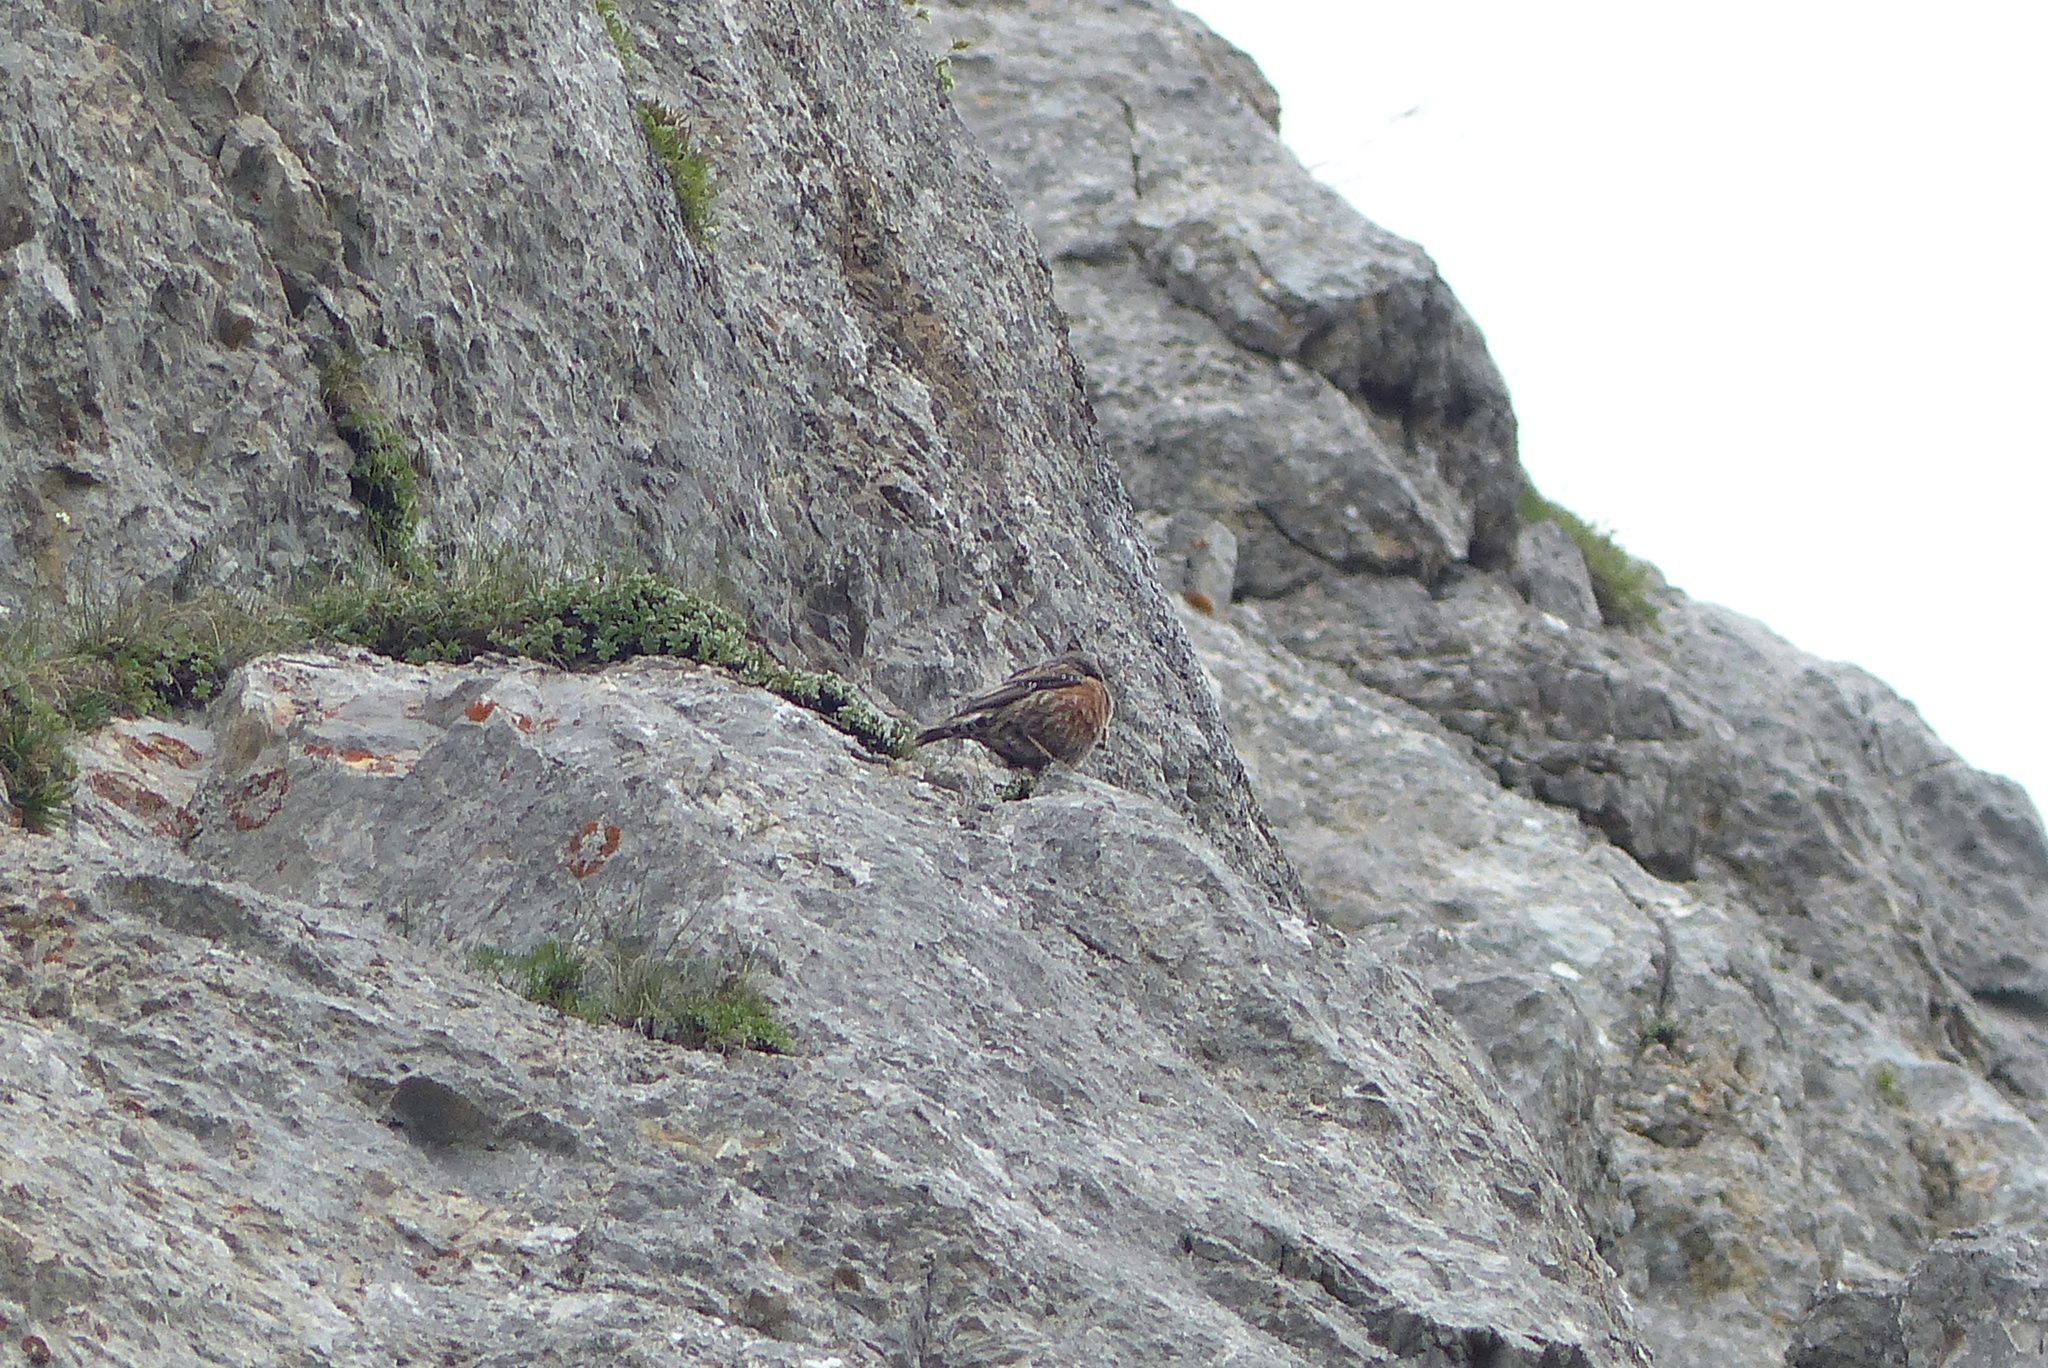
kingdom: Animalia
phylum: Chordata
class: Aves
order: Passeriformes
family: Prunellidae
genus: Prunella
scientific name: Prunella collaris
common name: Alpine accentor
